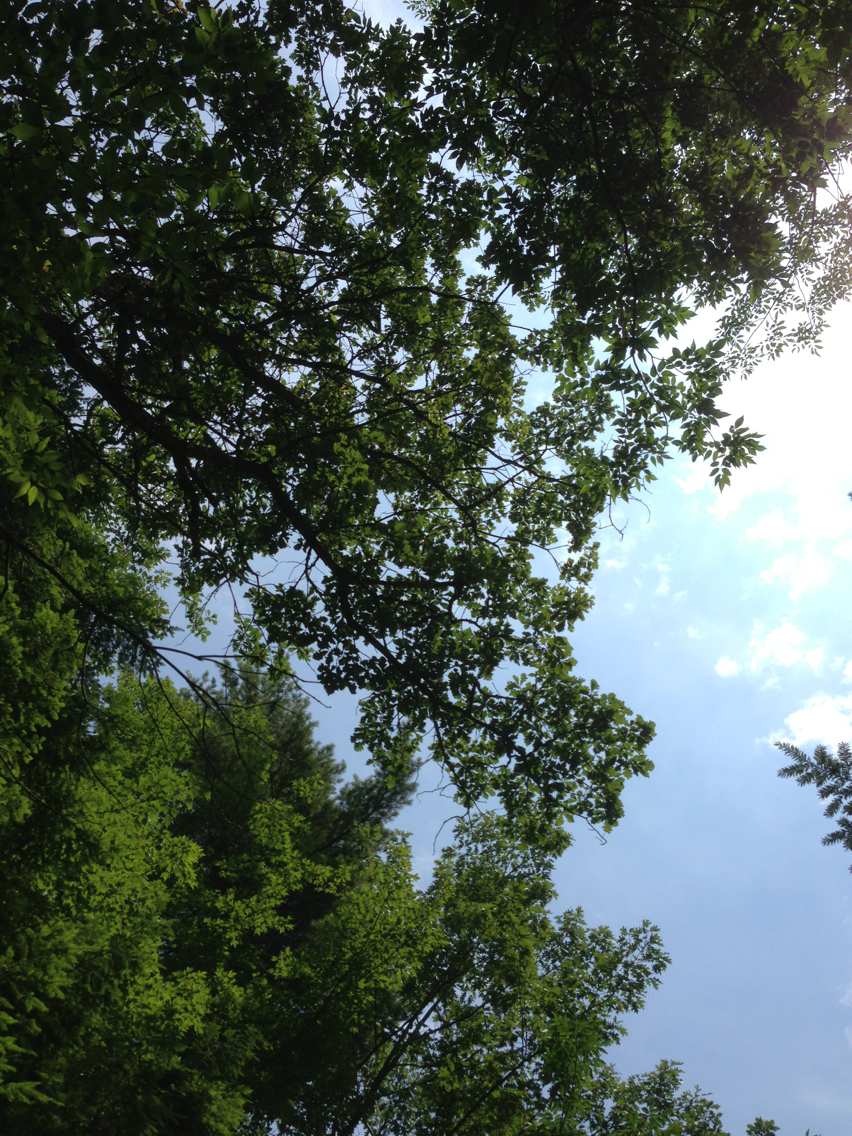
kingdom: Plantae
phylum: Tracheophyta
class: Magnoliopsida
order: Fagales
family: Fagaceae
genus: Quercus
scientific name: Quercus macrocarpa
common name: Bur oak
